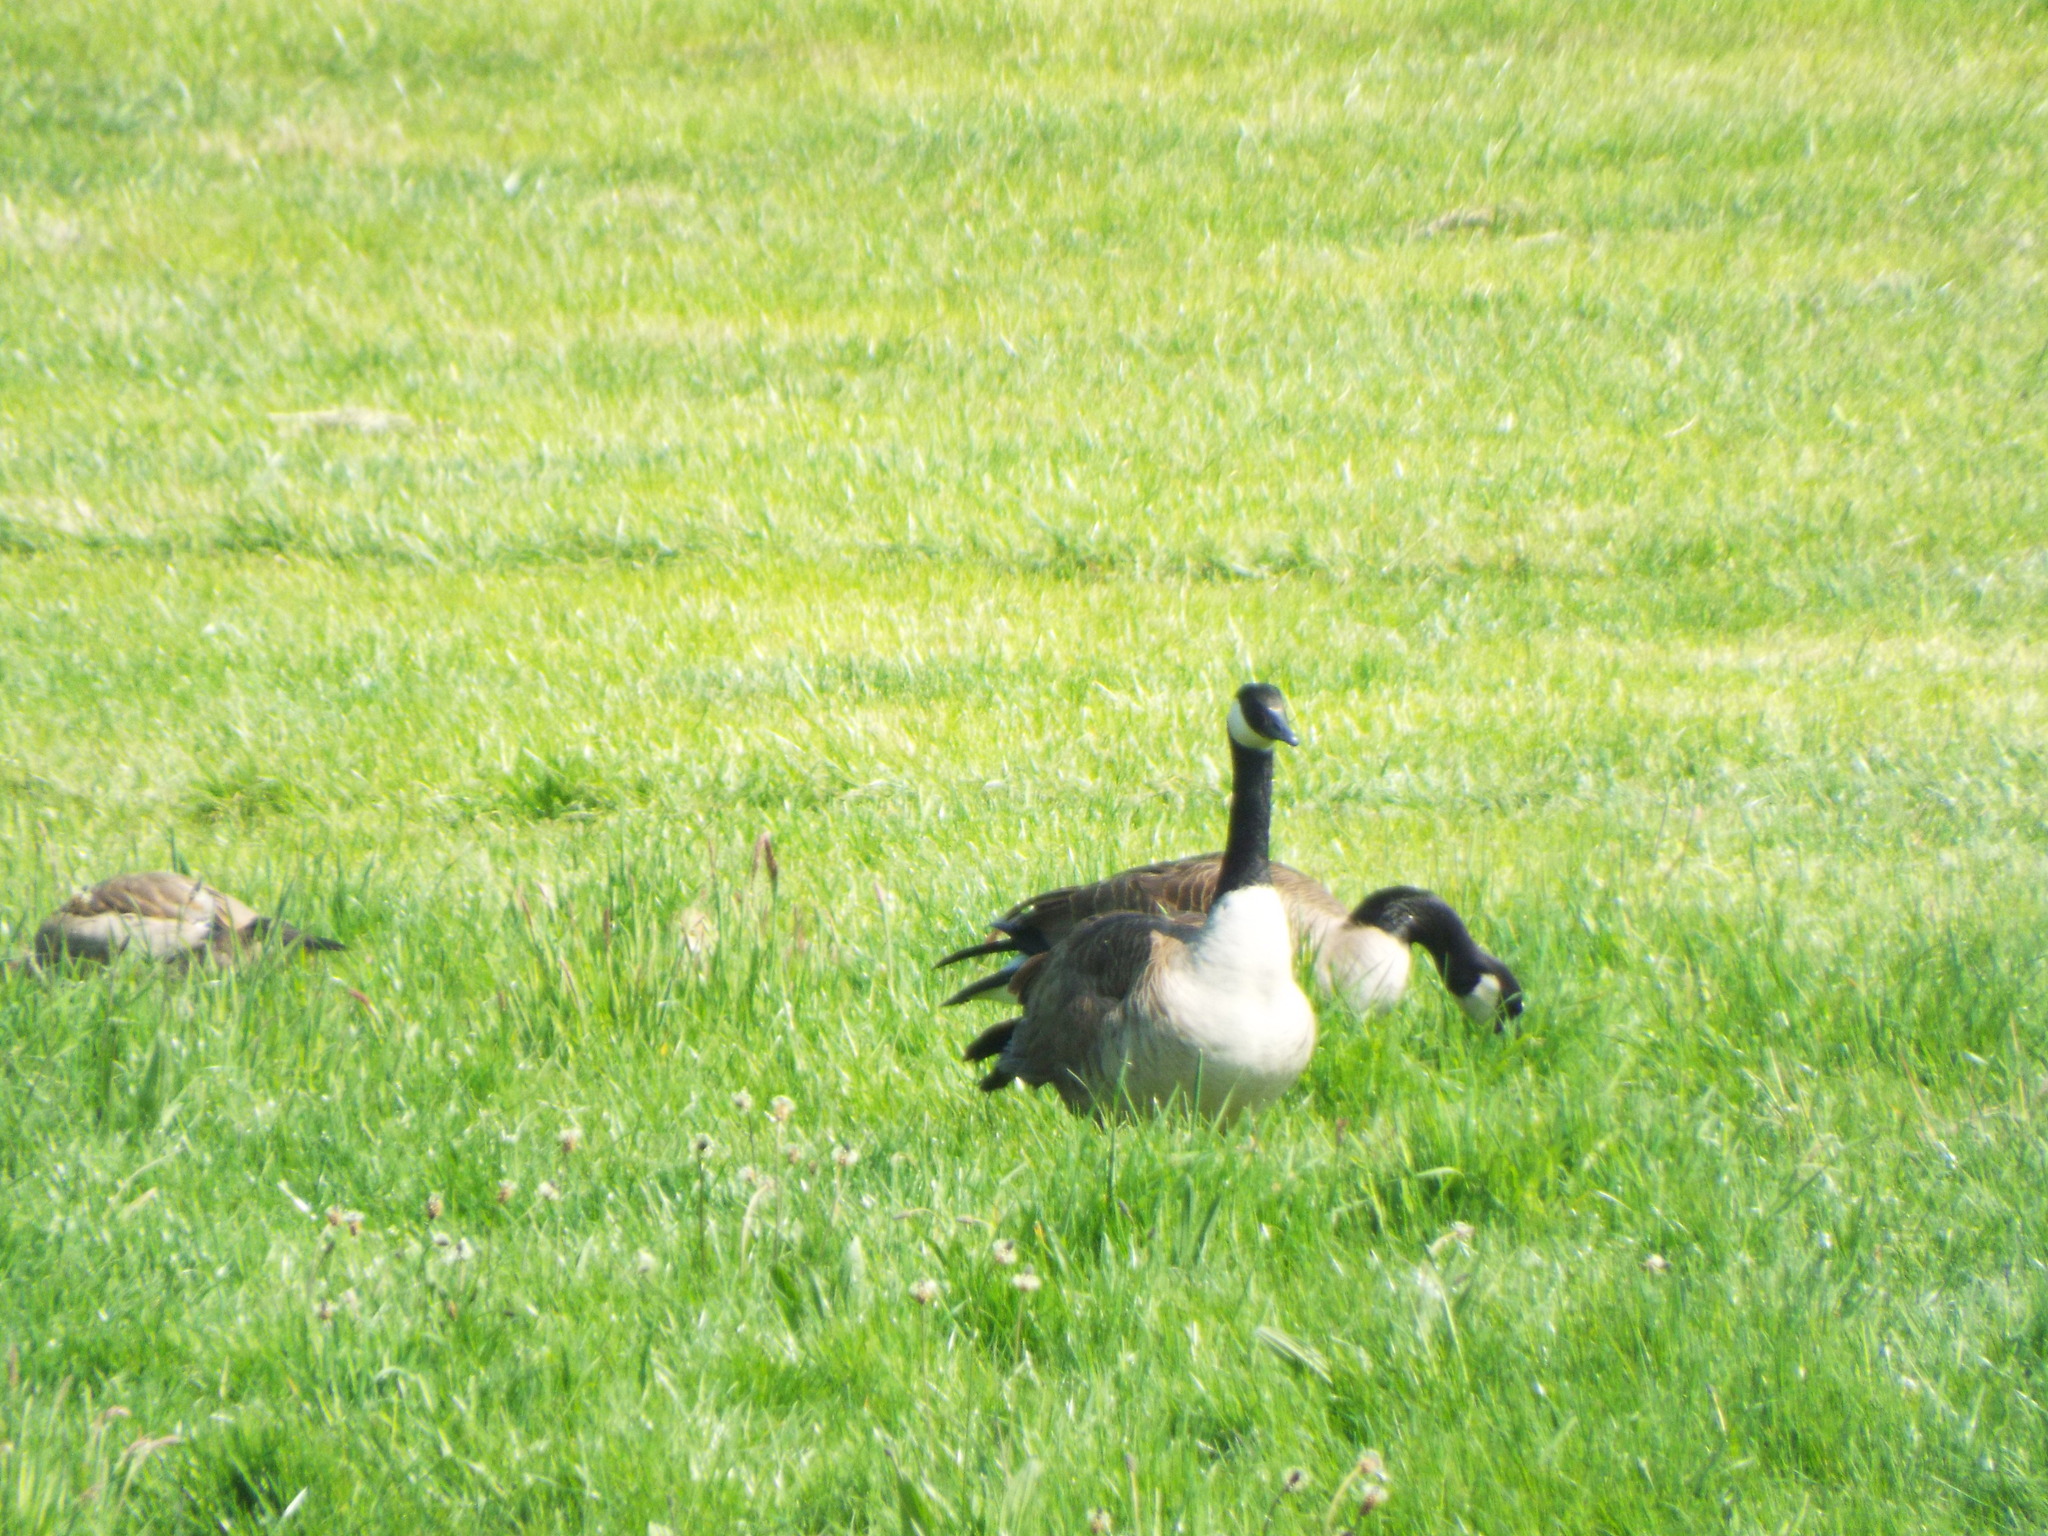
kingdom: Animalia
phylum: Chordata
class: Aves
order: Anseriformes
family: Anatidae
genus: Branta
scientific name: Branta canadensis
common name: Canada goose
